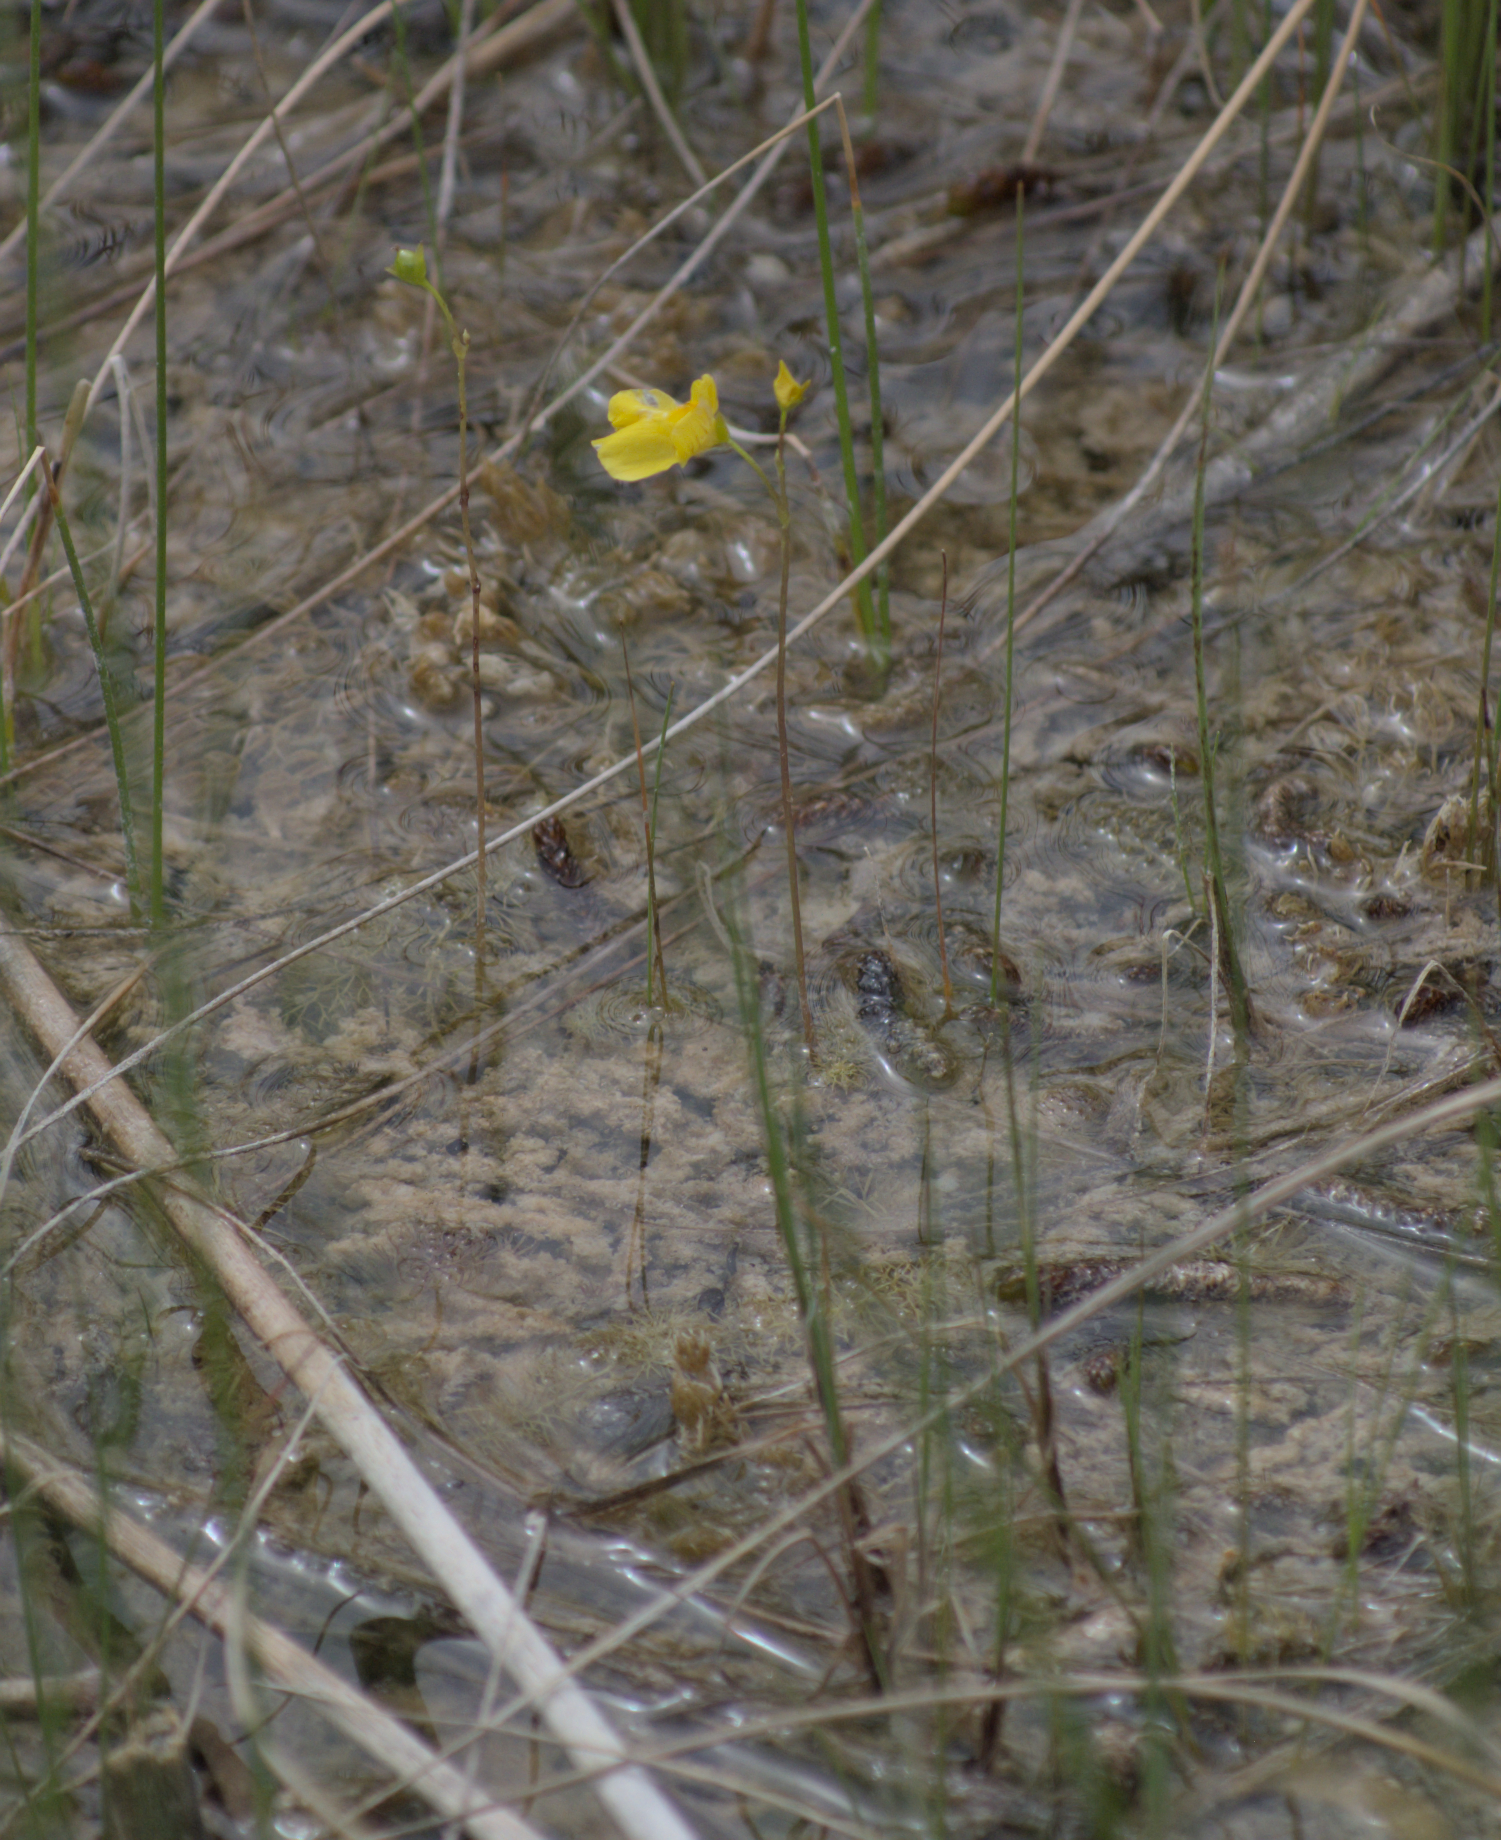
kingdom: Plantae
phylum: Tracheophyta
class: Magnoliopsida
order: Lamiales
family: Lentibulariaceae
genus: Utricularia
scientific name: Utricularia intermedia
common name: Intermediate bladderwort
